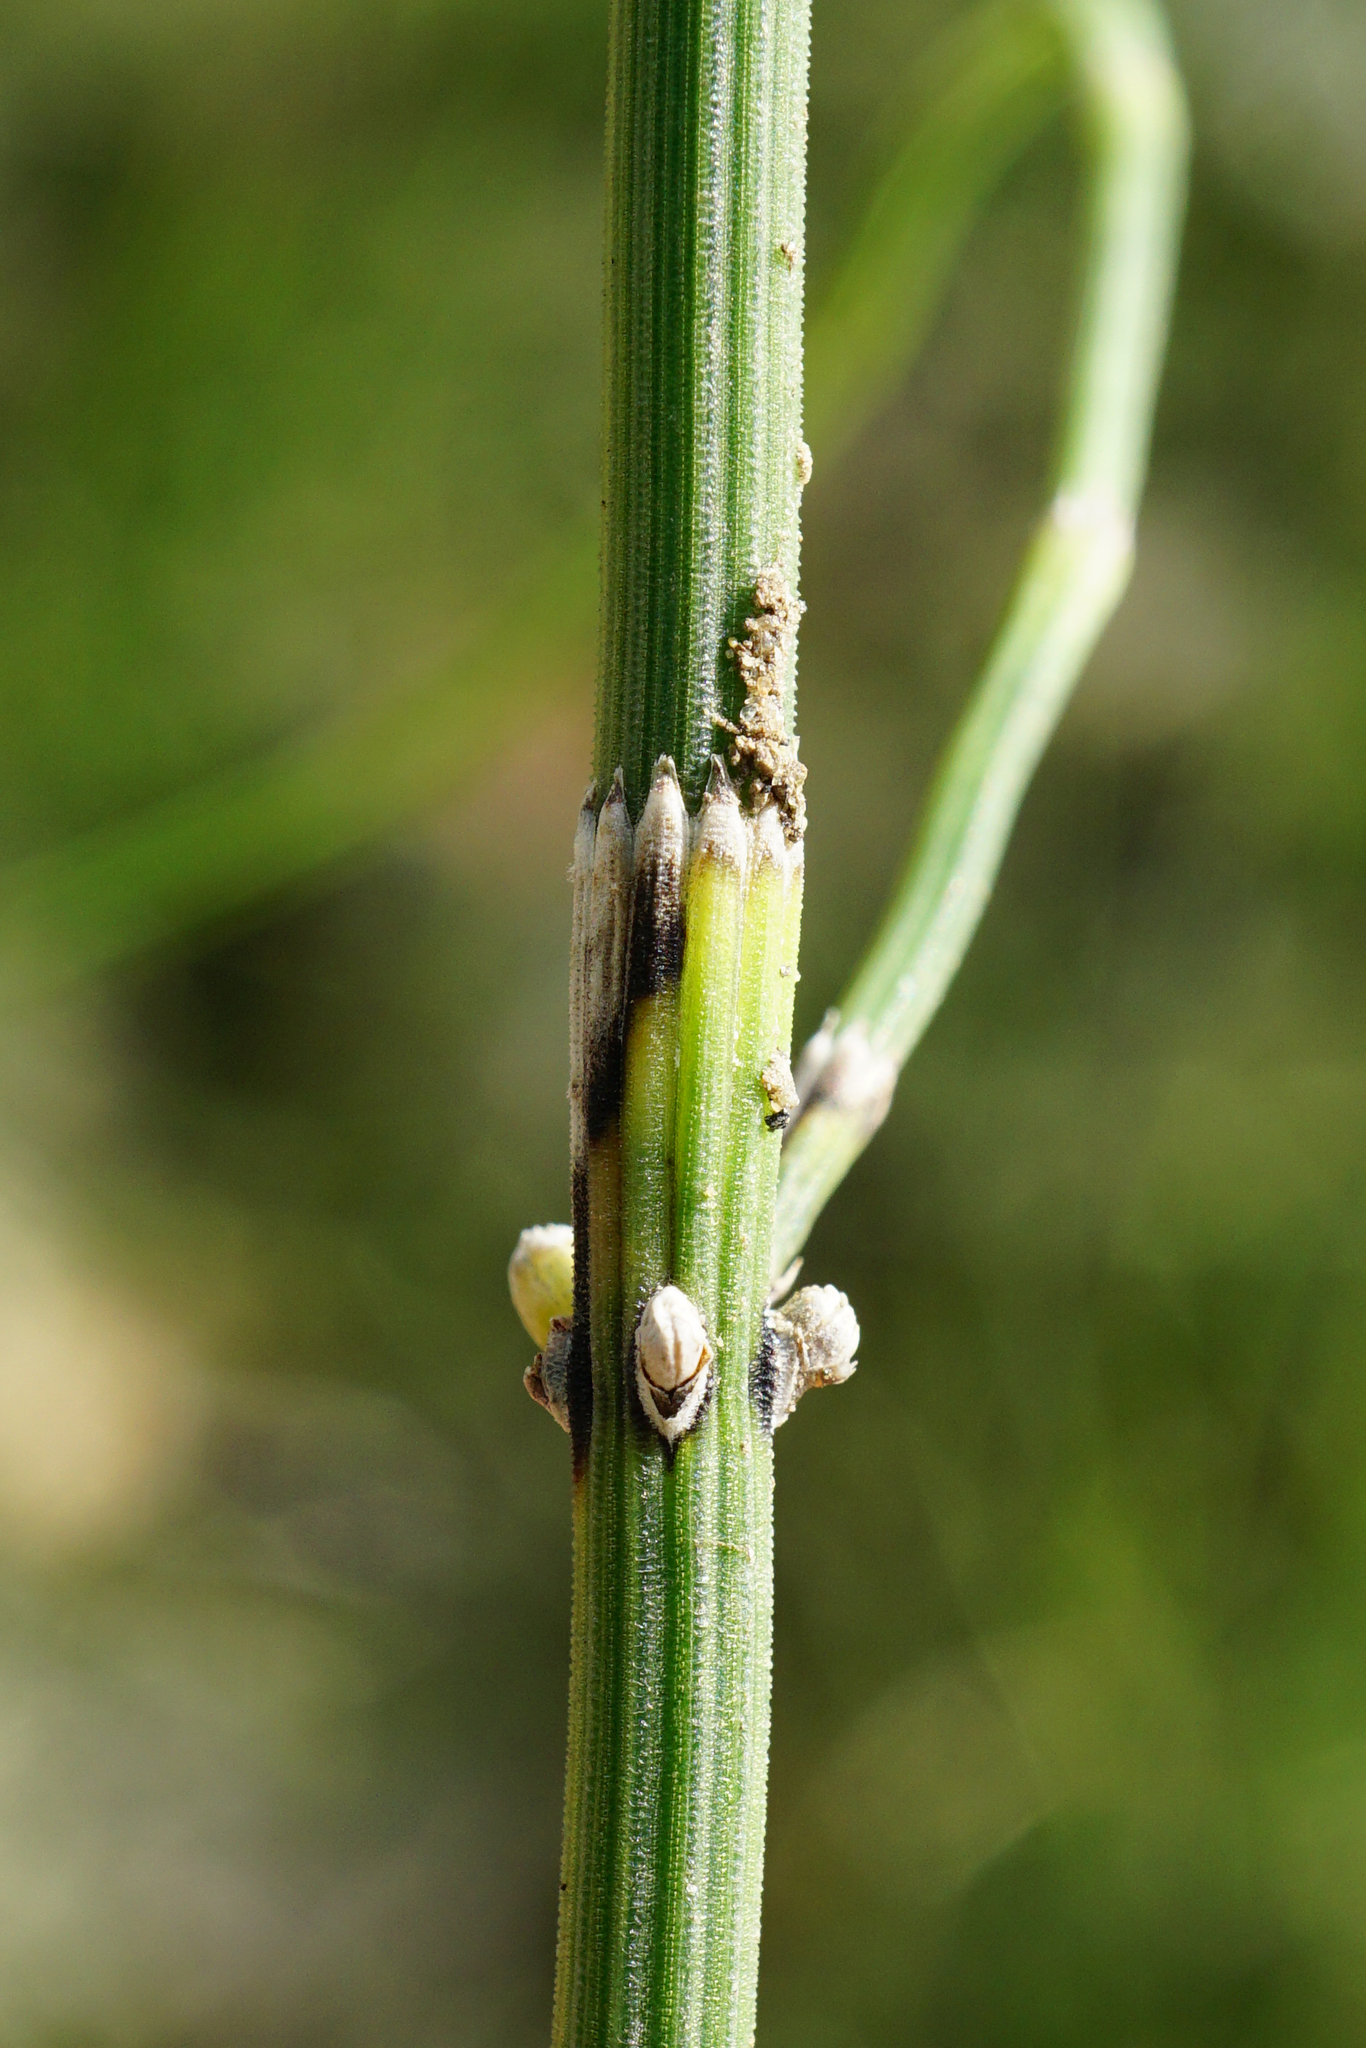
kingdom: Plantae
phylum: Tracheophyta
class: Polypodiopsida
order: Equisetales
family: Equisetaceae
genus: Equisetum
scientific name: Equisetum ramosissimum
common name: Branched horsetail
